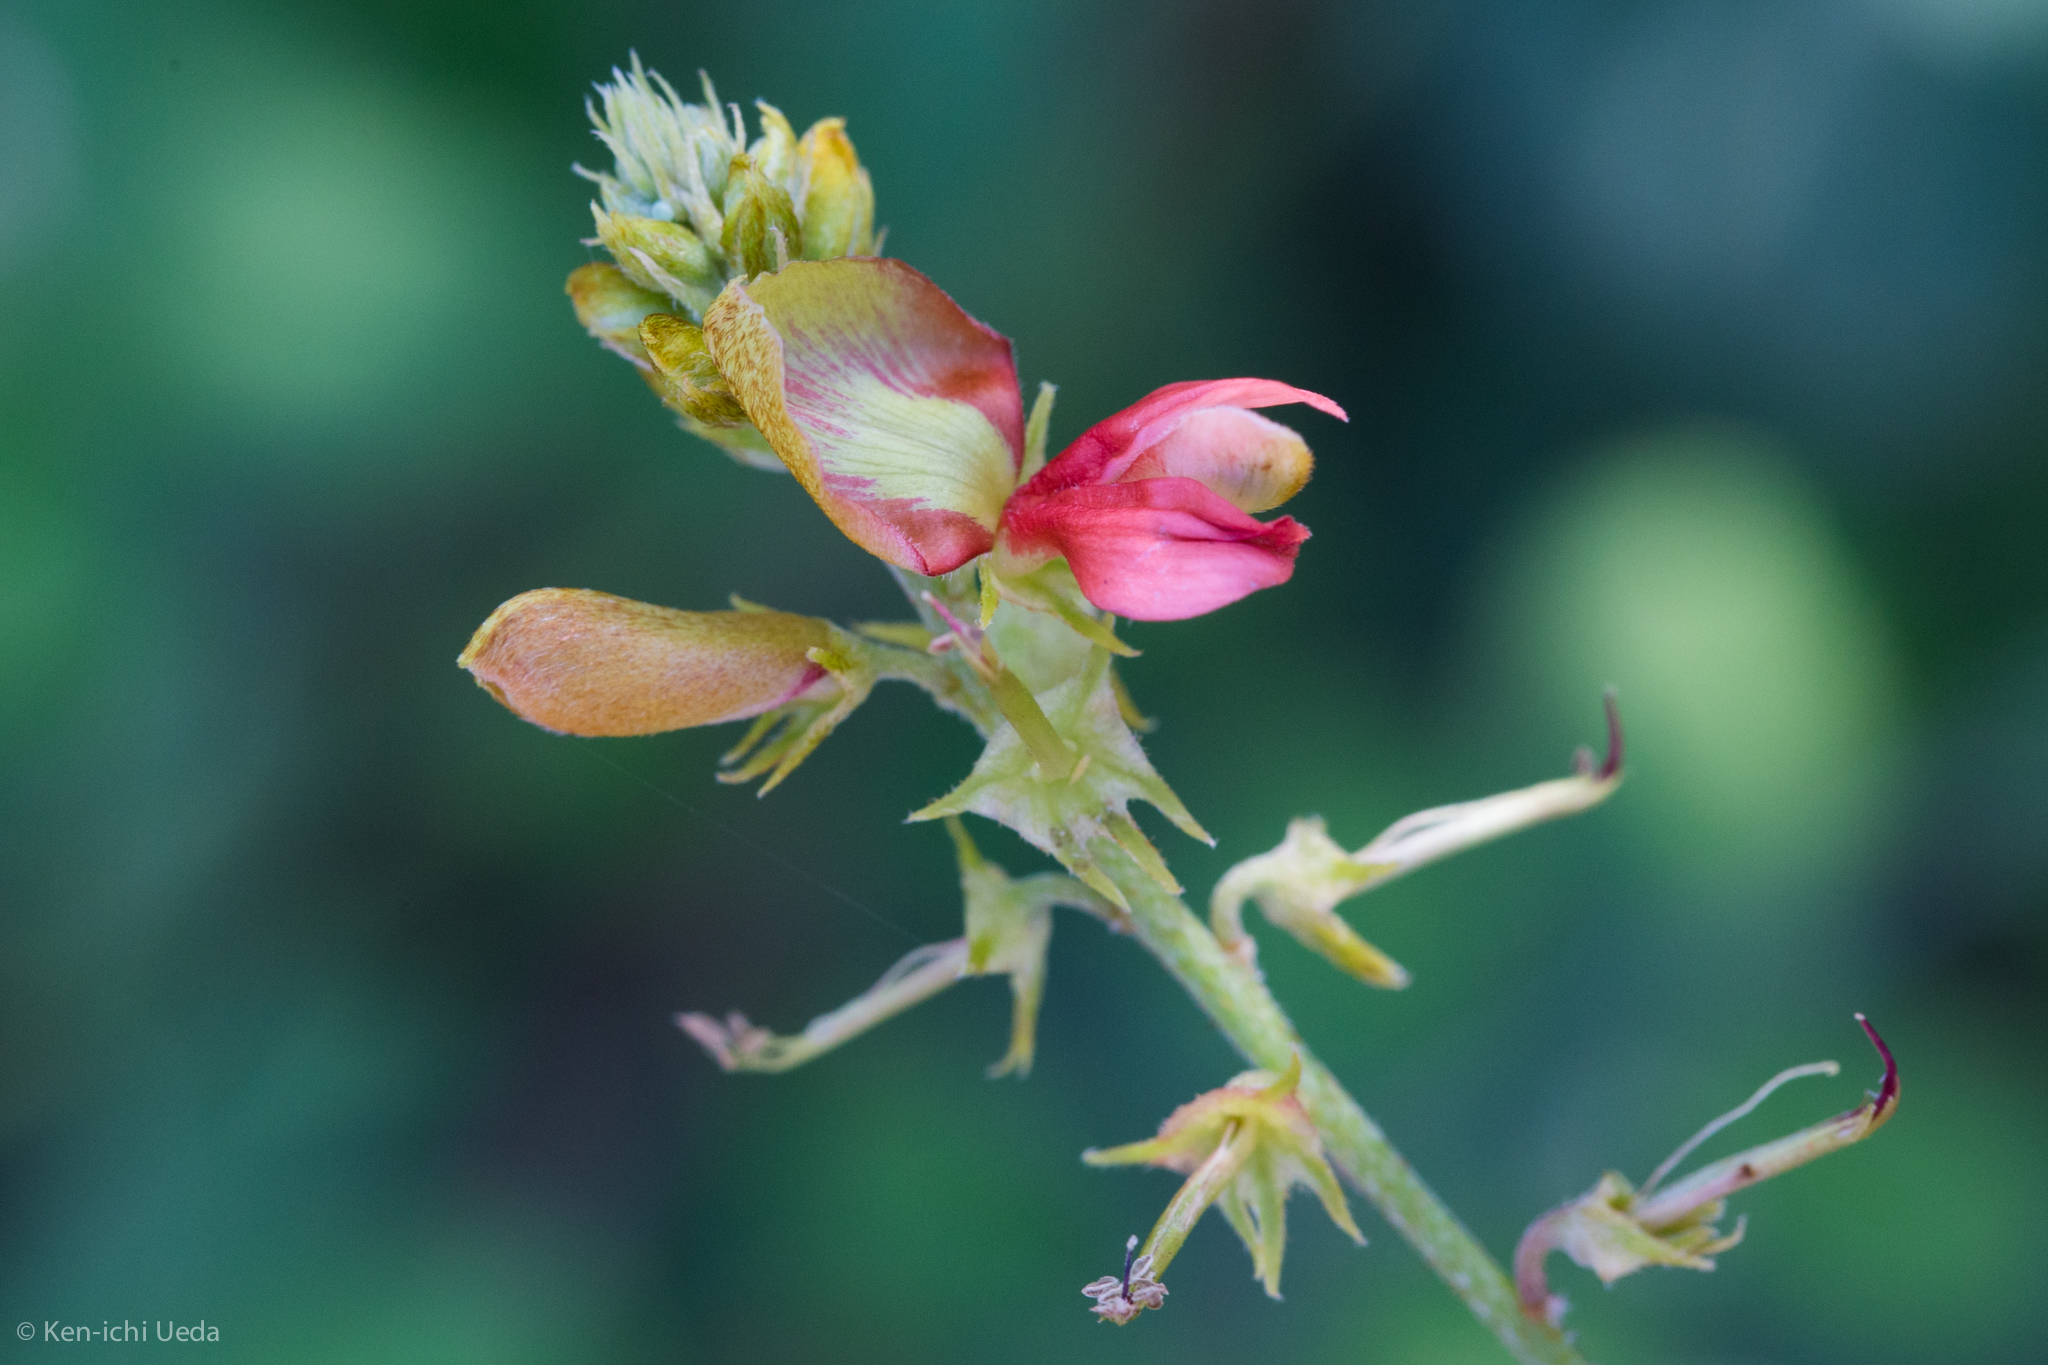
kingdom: Plantae
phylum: Tracheophyta
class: Magnoliopsida
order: Fabales
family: Fabaceae
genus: Indigofera
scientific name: Indigofera fruticosa
